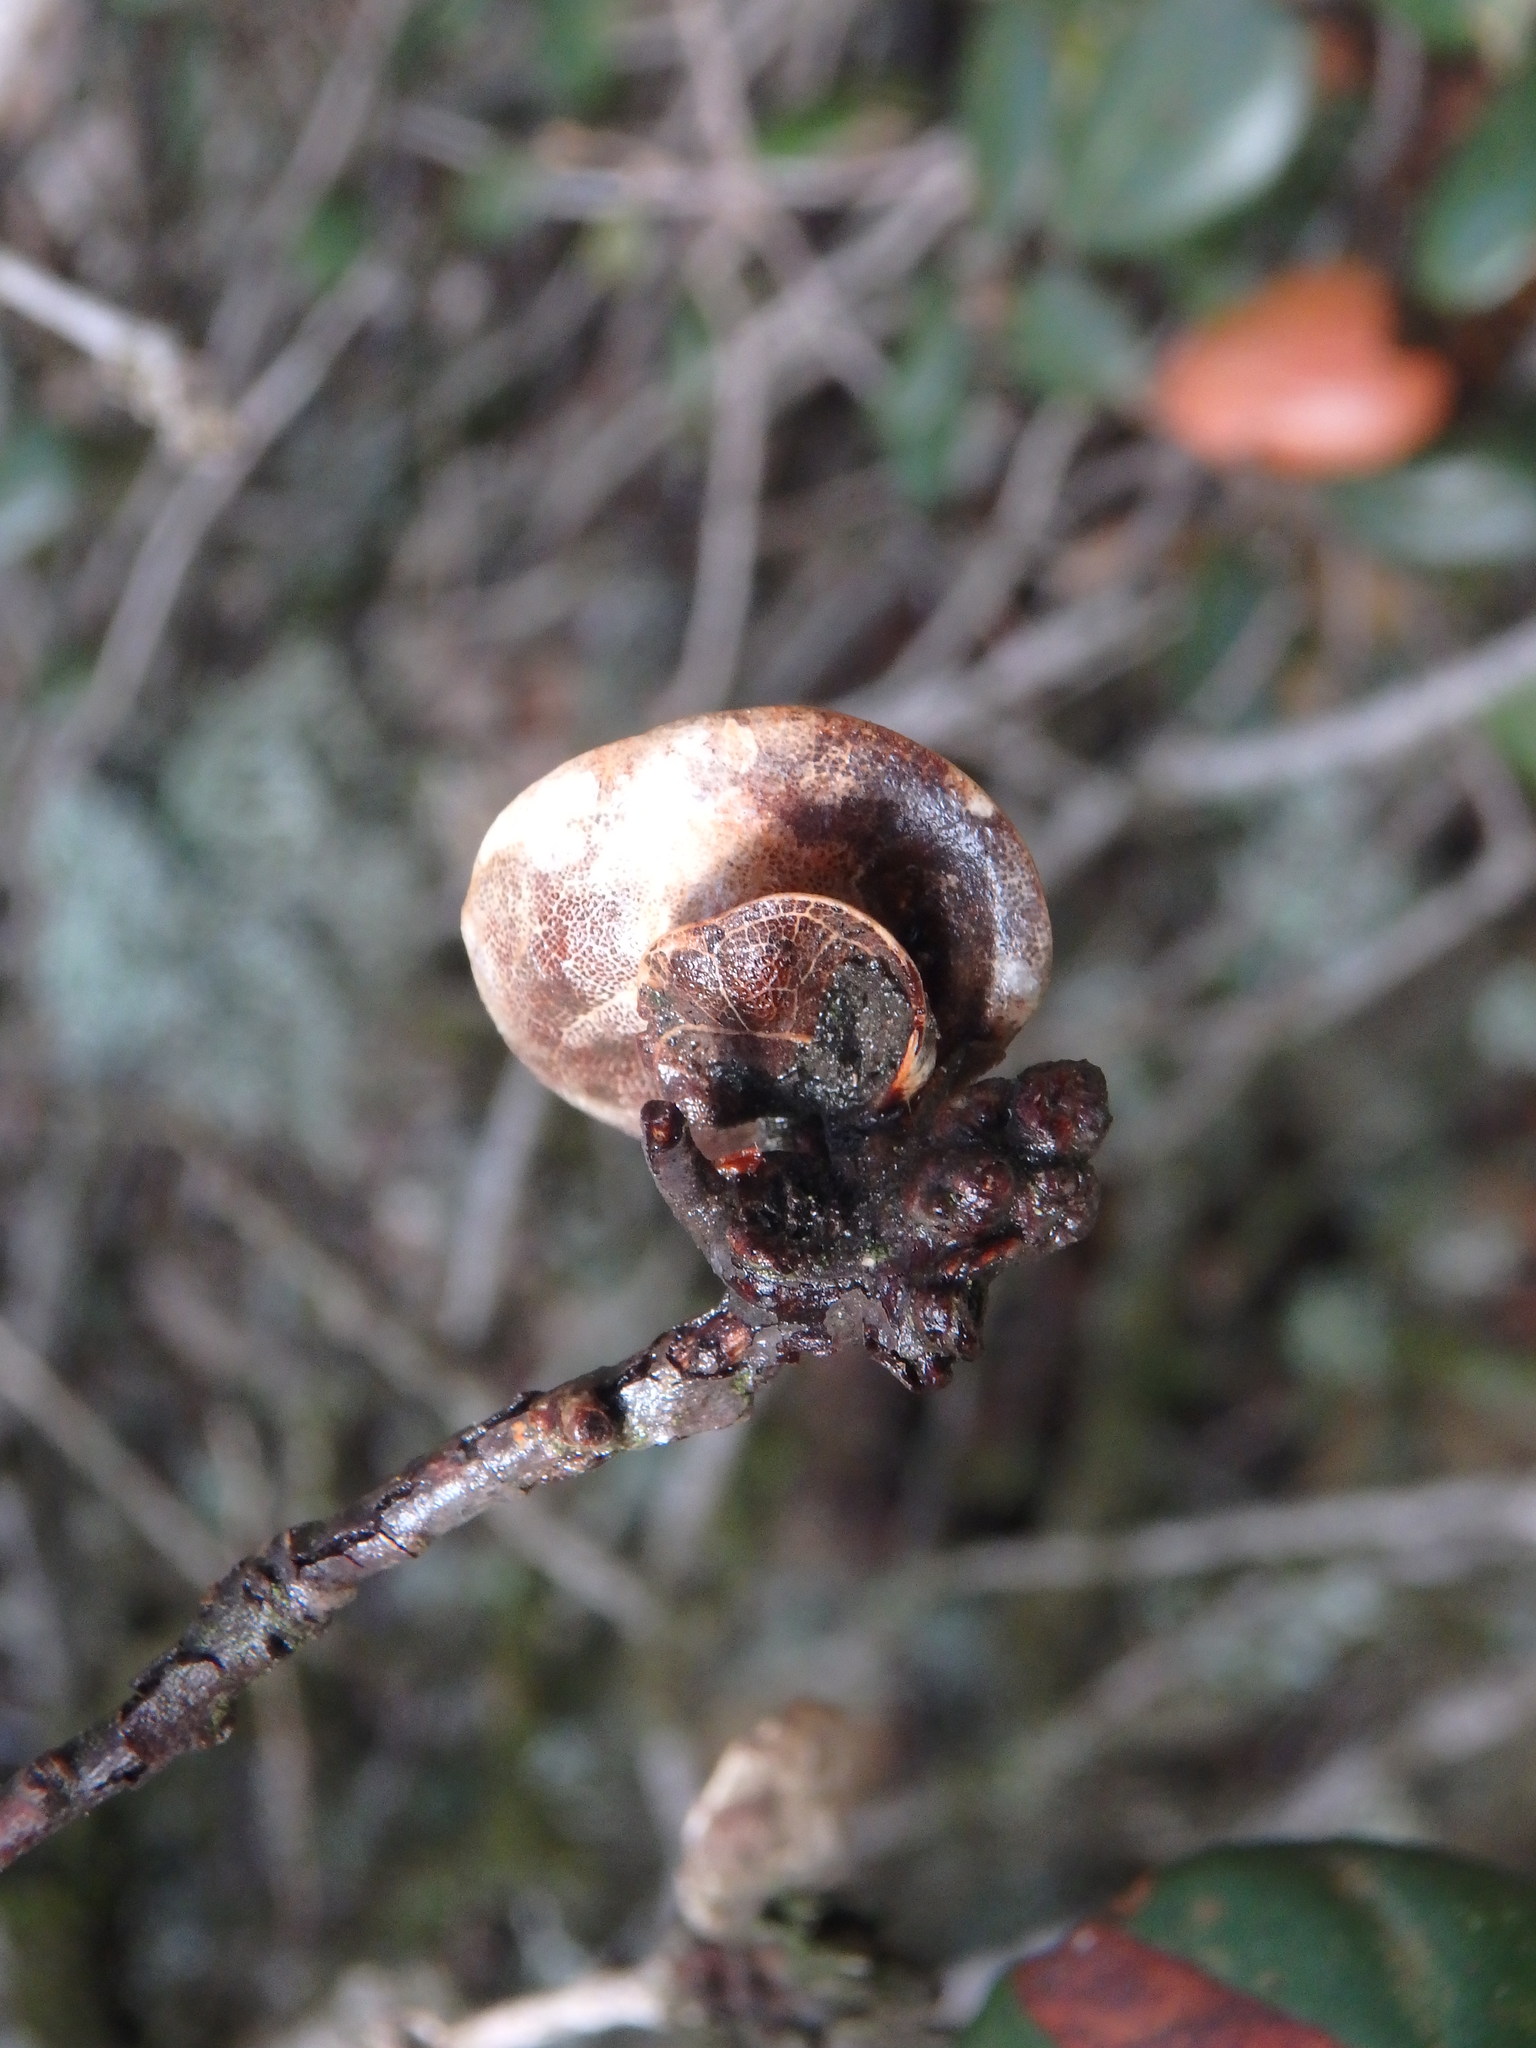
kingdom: Plantae
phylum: Tracheophyta
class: Magnoliopsida
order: Fagales
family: Fagaceae
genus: Quercus
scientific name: Quercus alnifolia
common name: Golden oak
